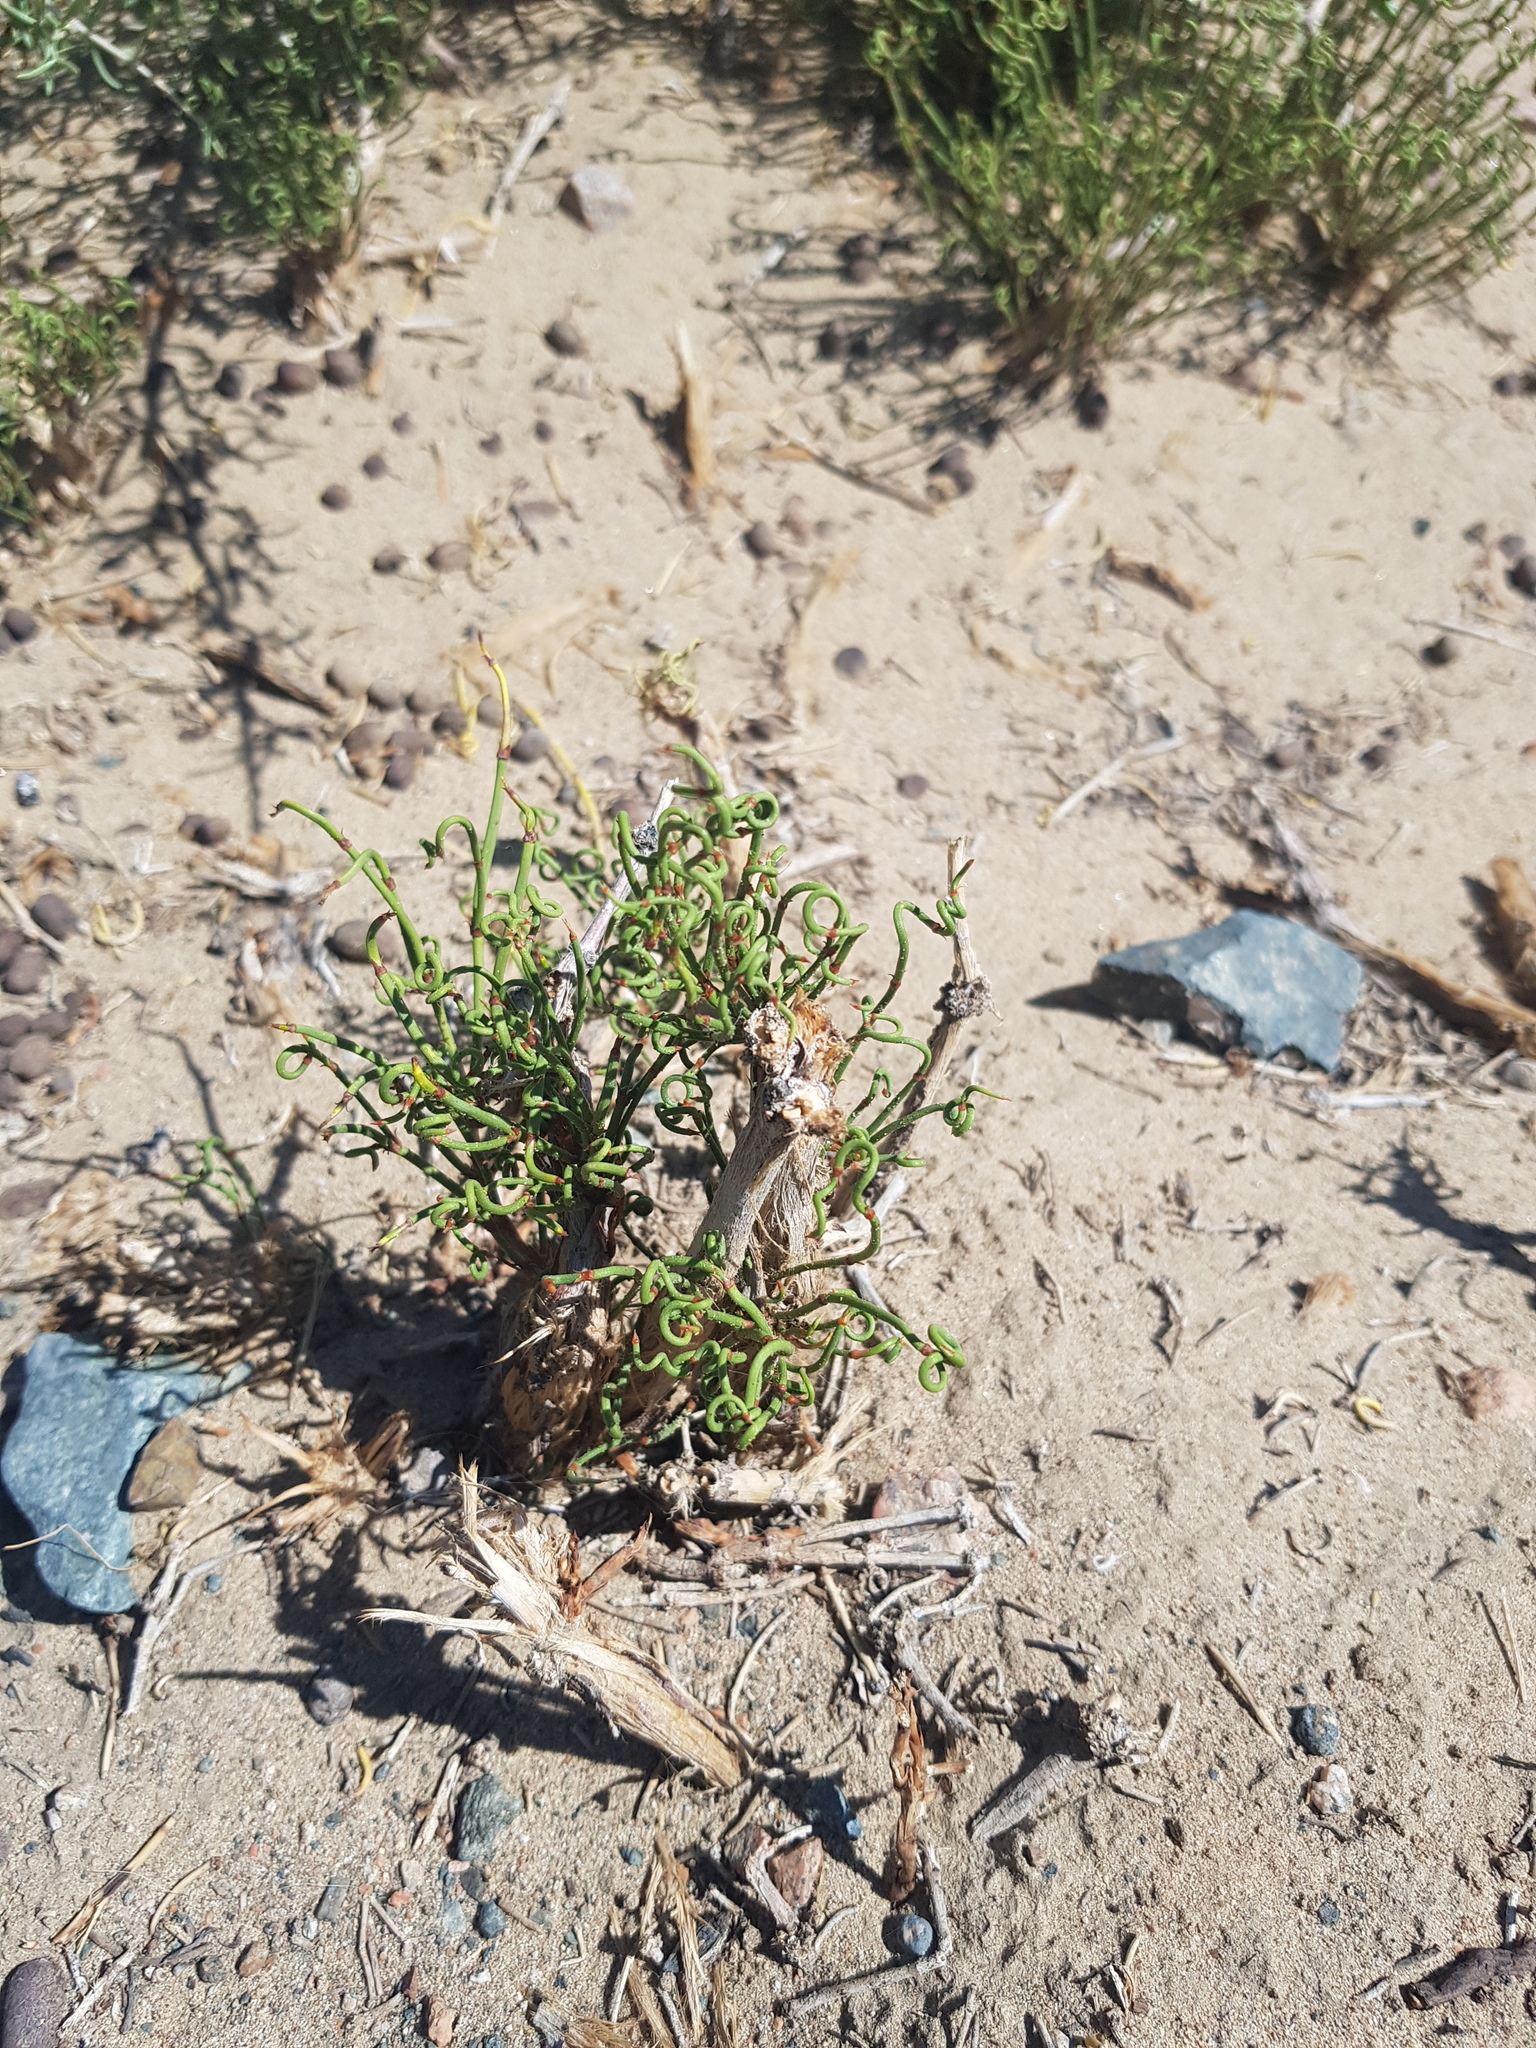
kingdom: Plantae
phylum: Tracheophyta
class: Gnetopsida
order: Ephedrales
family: Ephedraceae
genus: Ephedra
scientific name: Ephedra przewalskii
